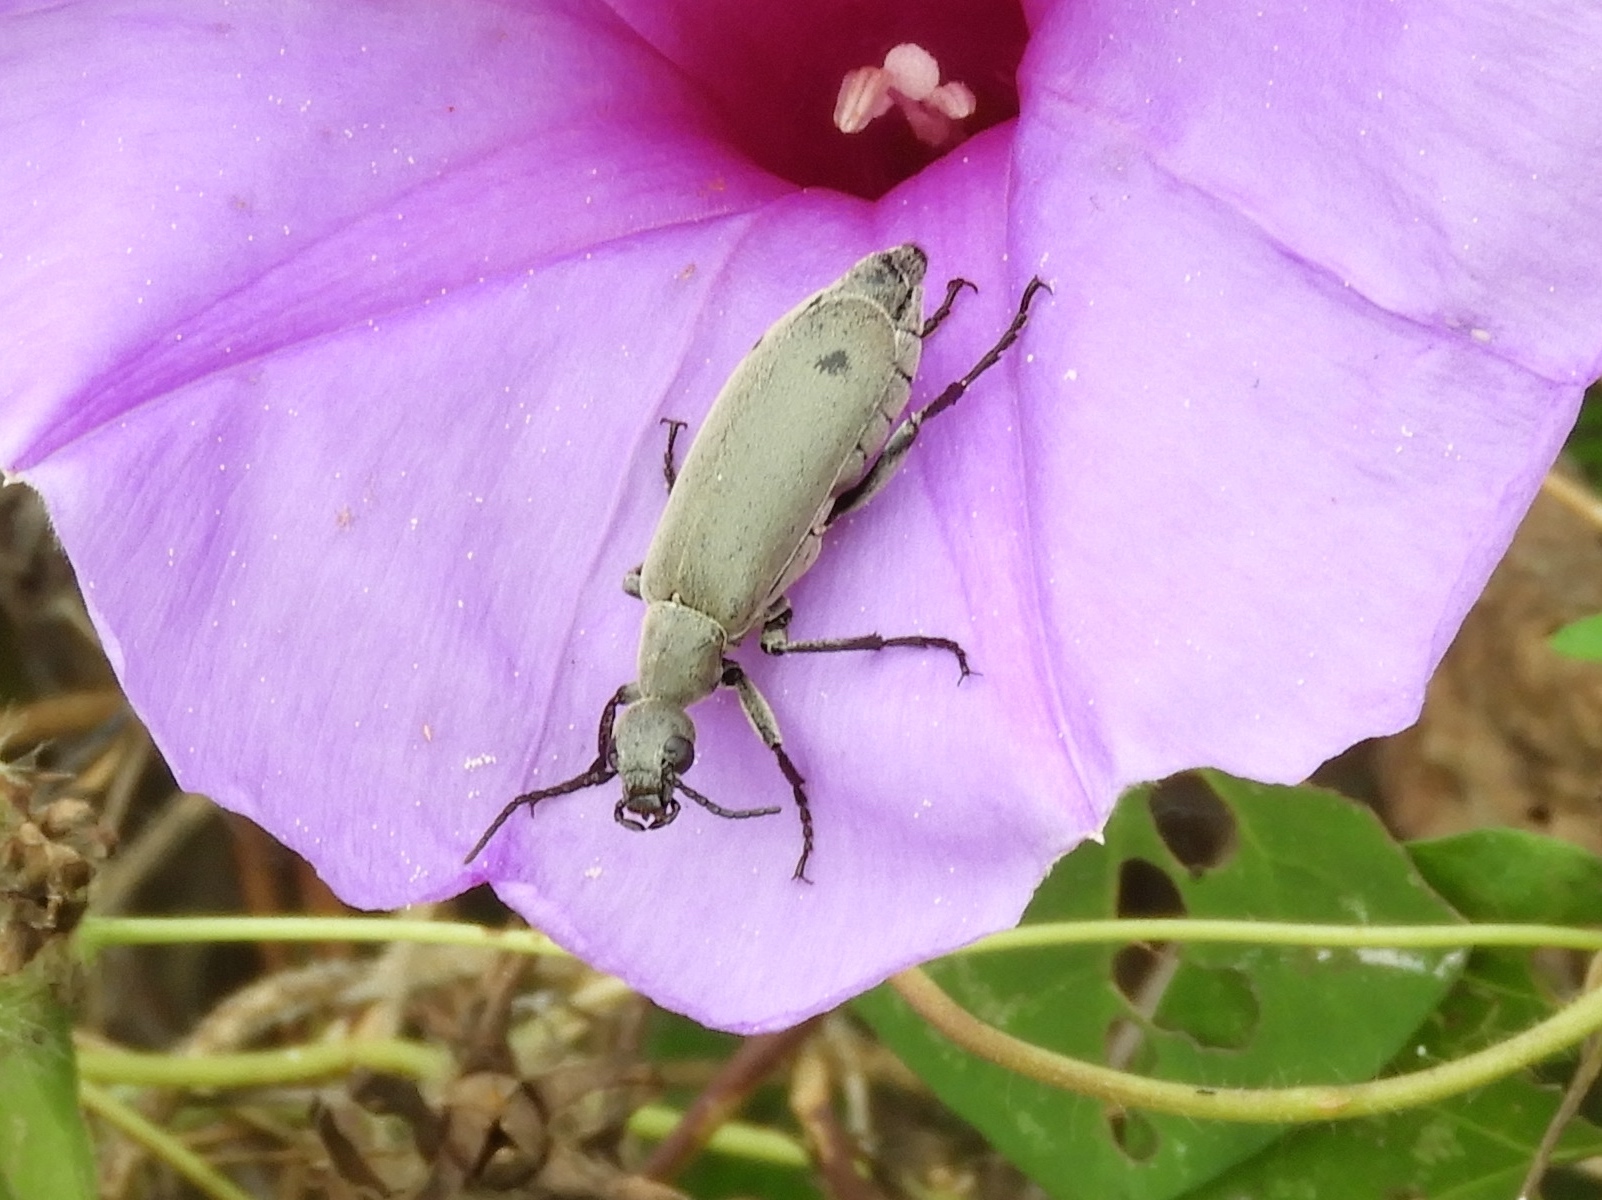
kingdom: Animalia
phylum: Arthropoda
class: Insecta
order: Coleoptera
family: Meloidae
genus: Epicauta
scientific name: Epicauta bipunctata
